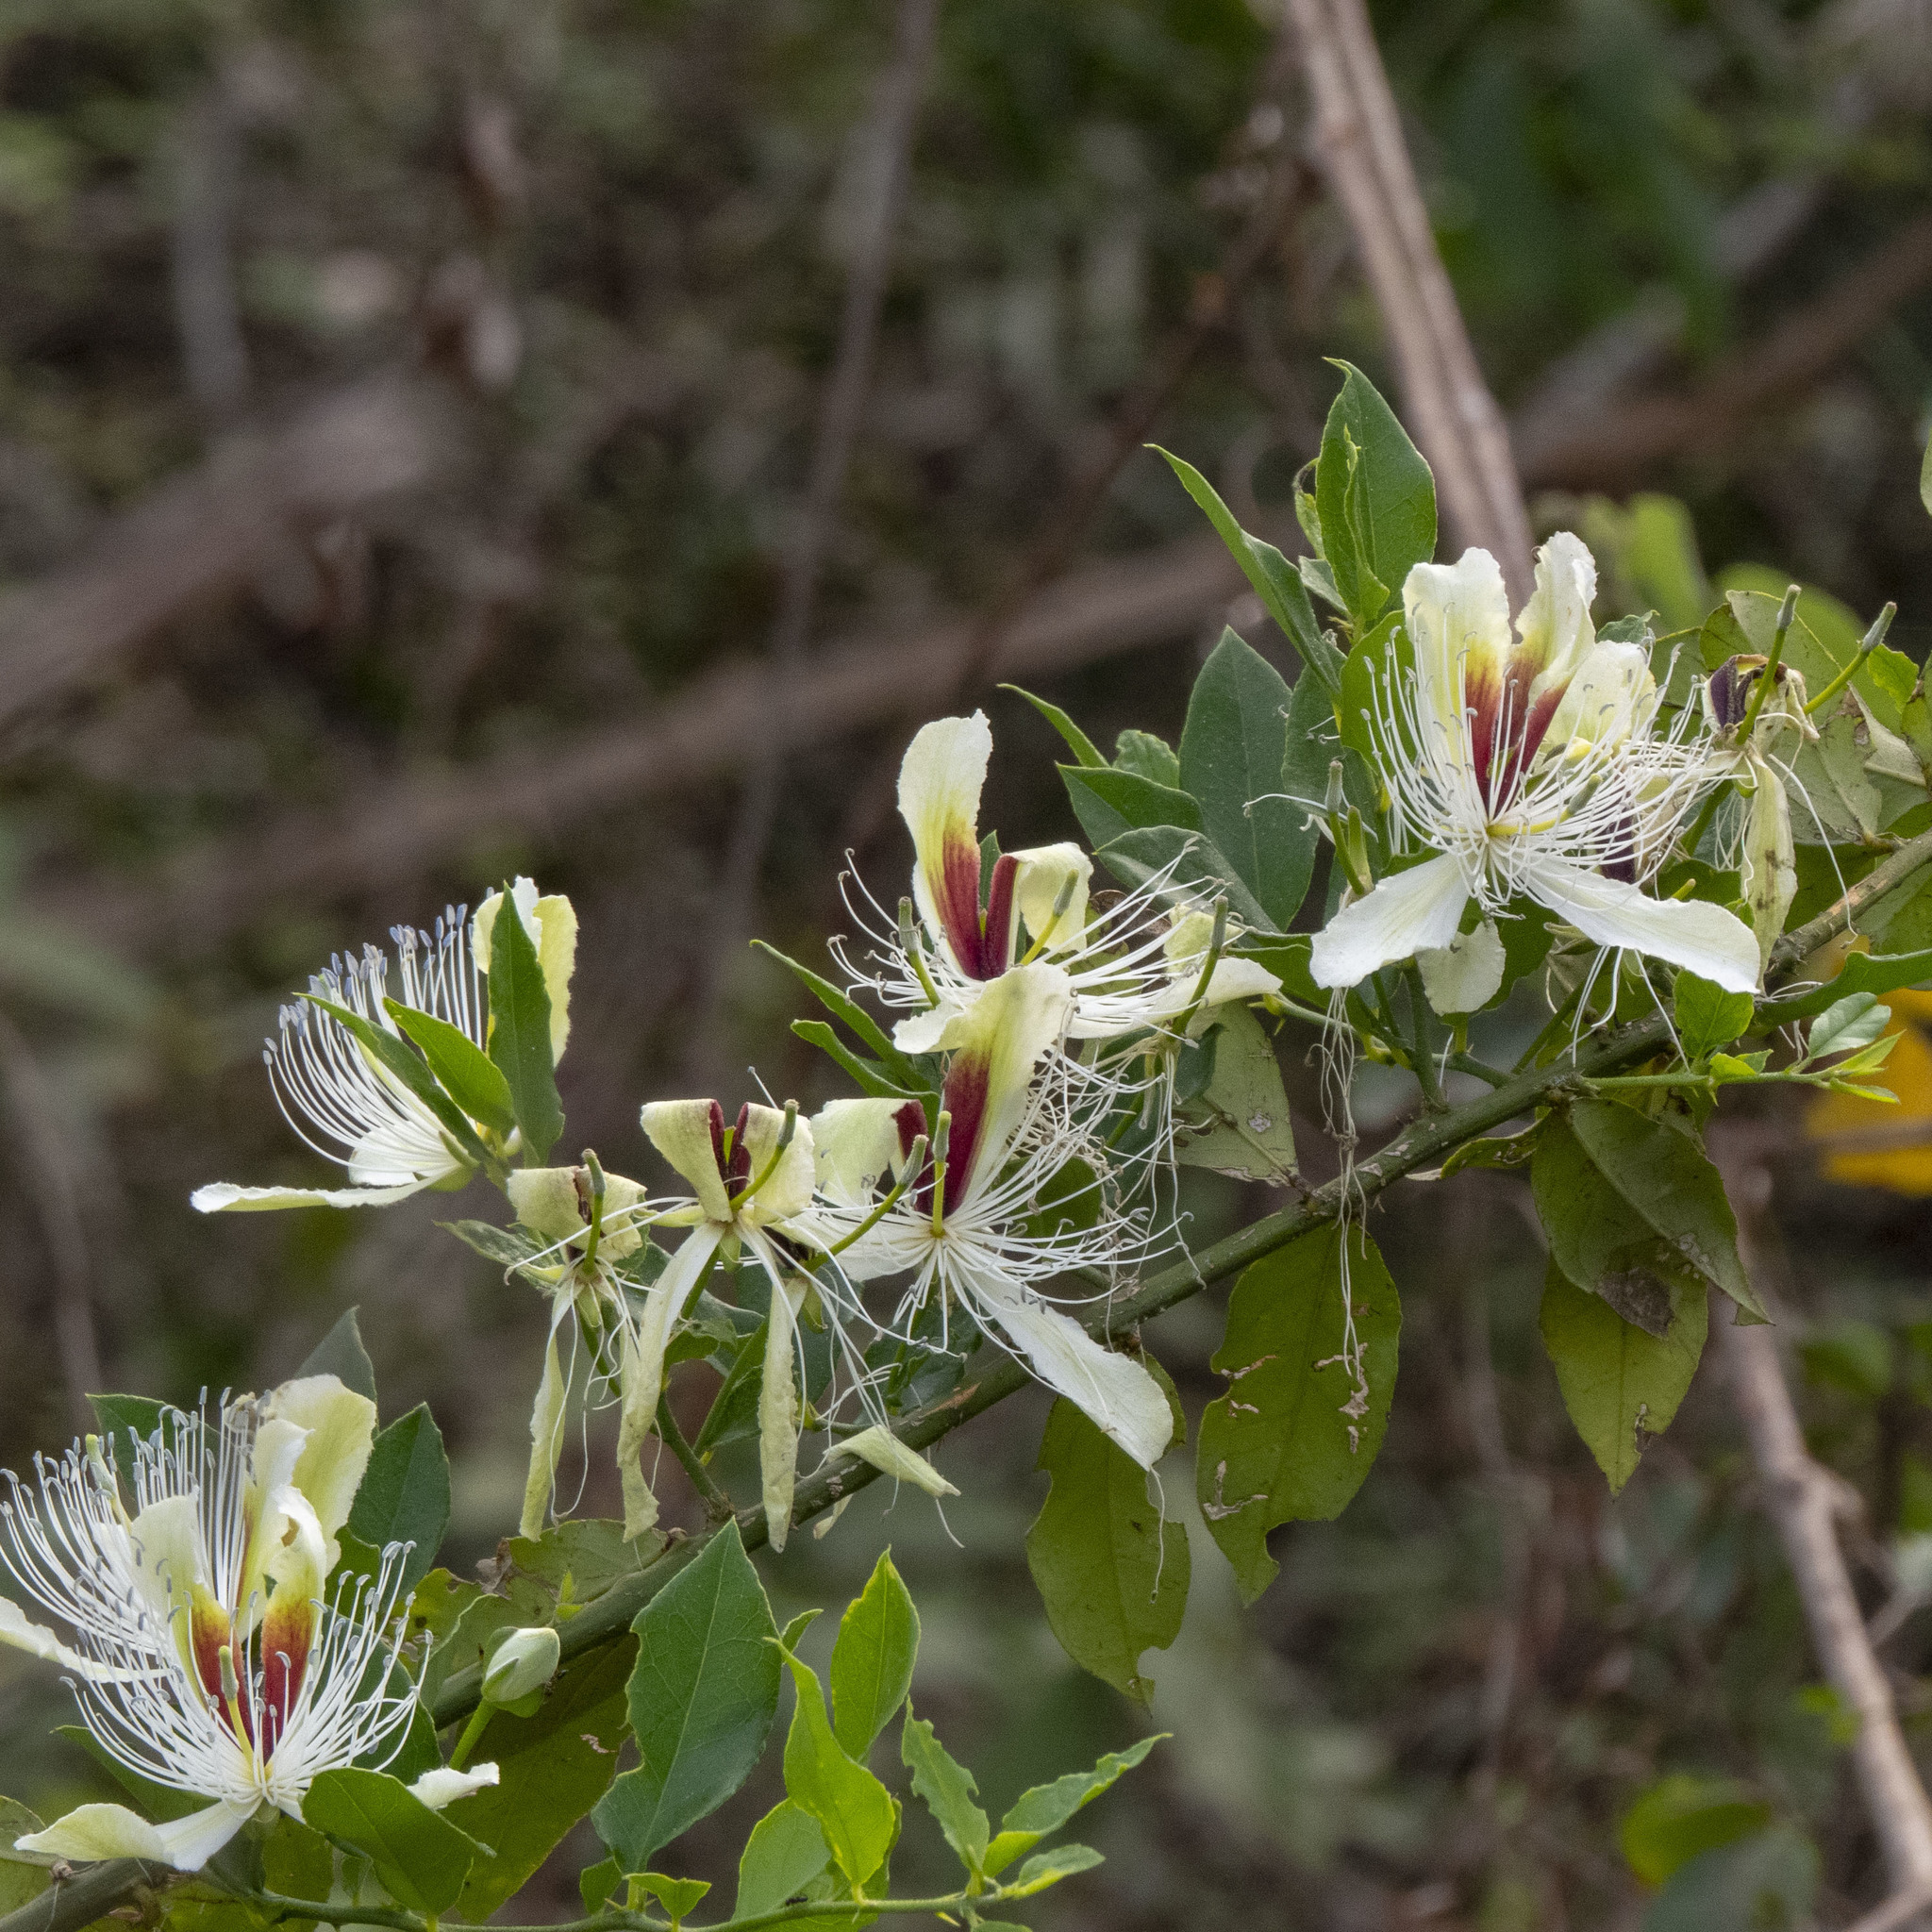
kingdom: Plantae
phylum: Tracheophyta
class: Magnoliopsida
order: Brassicales
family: Capparaceae
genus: Capparis
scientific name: Capparis brevispina
